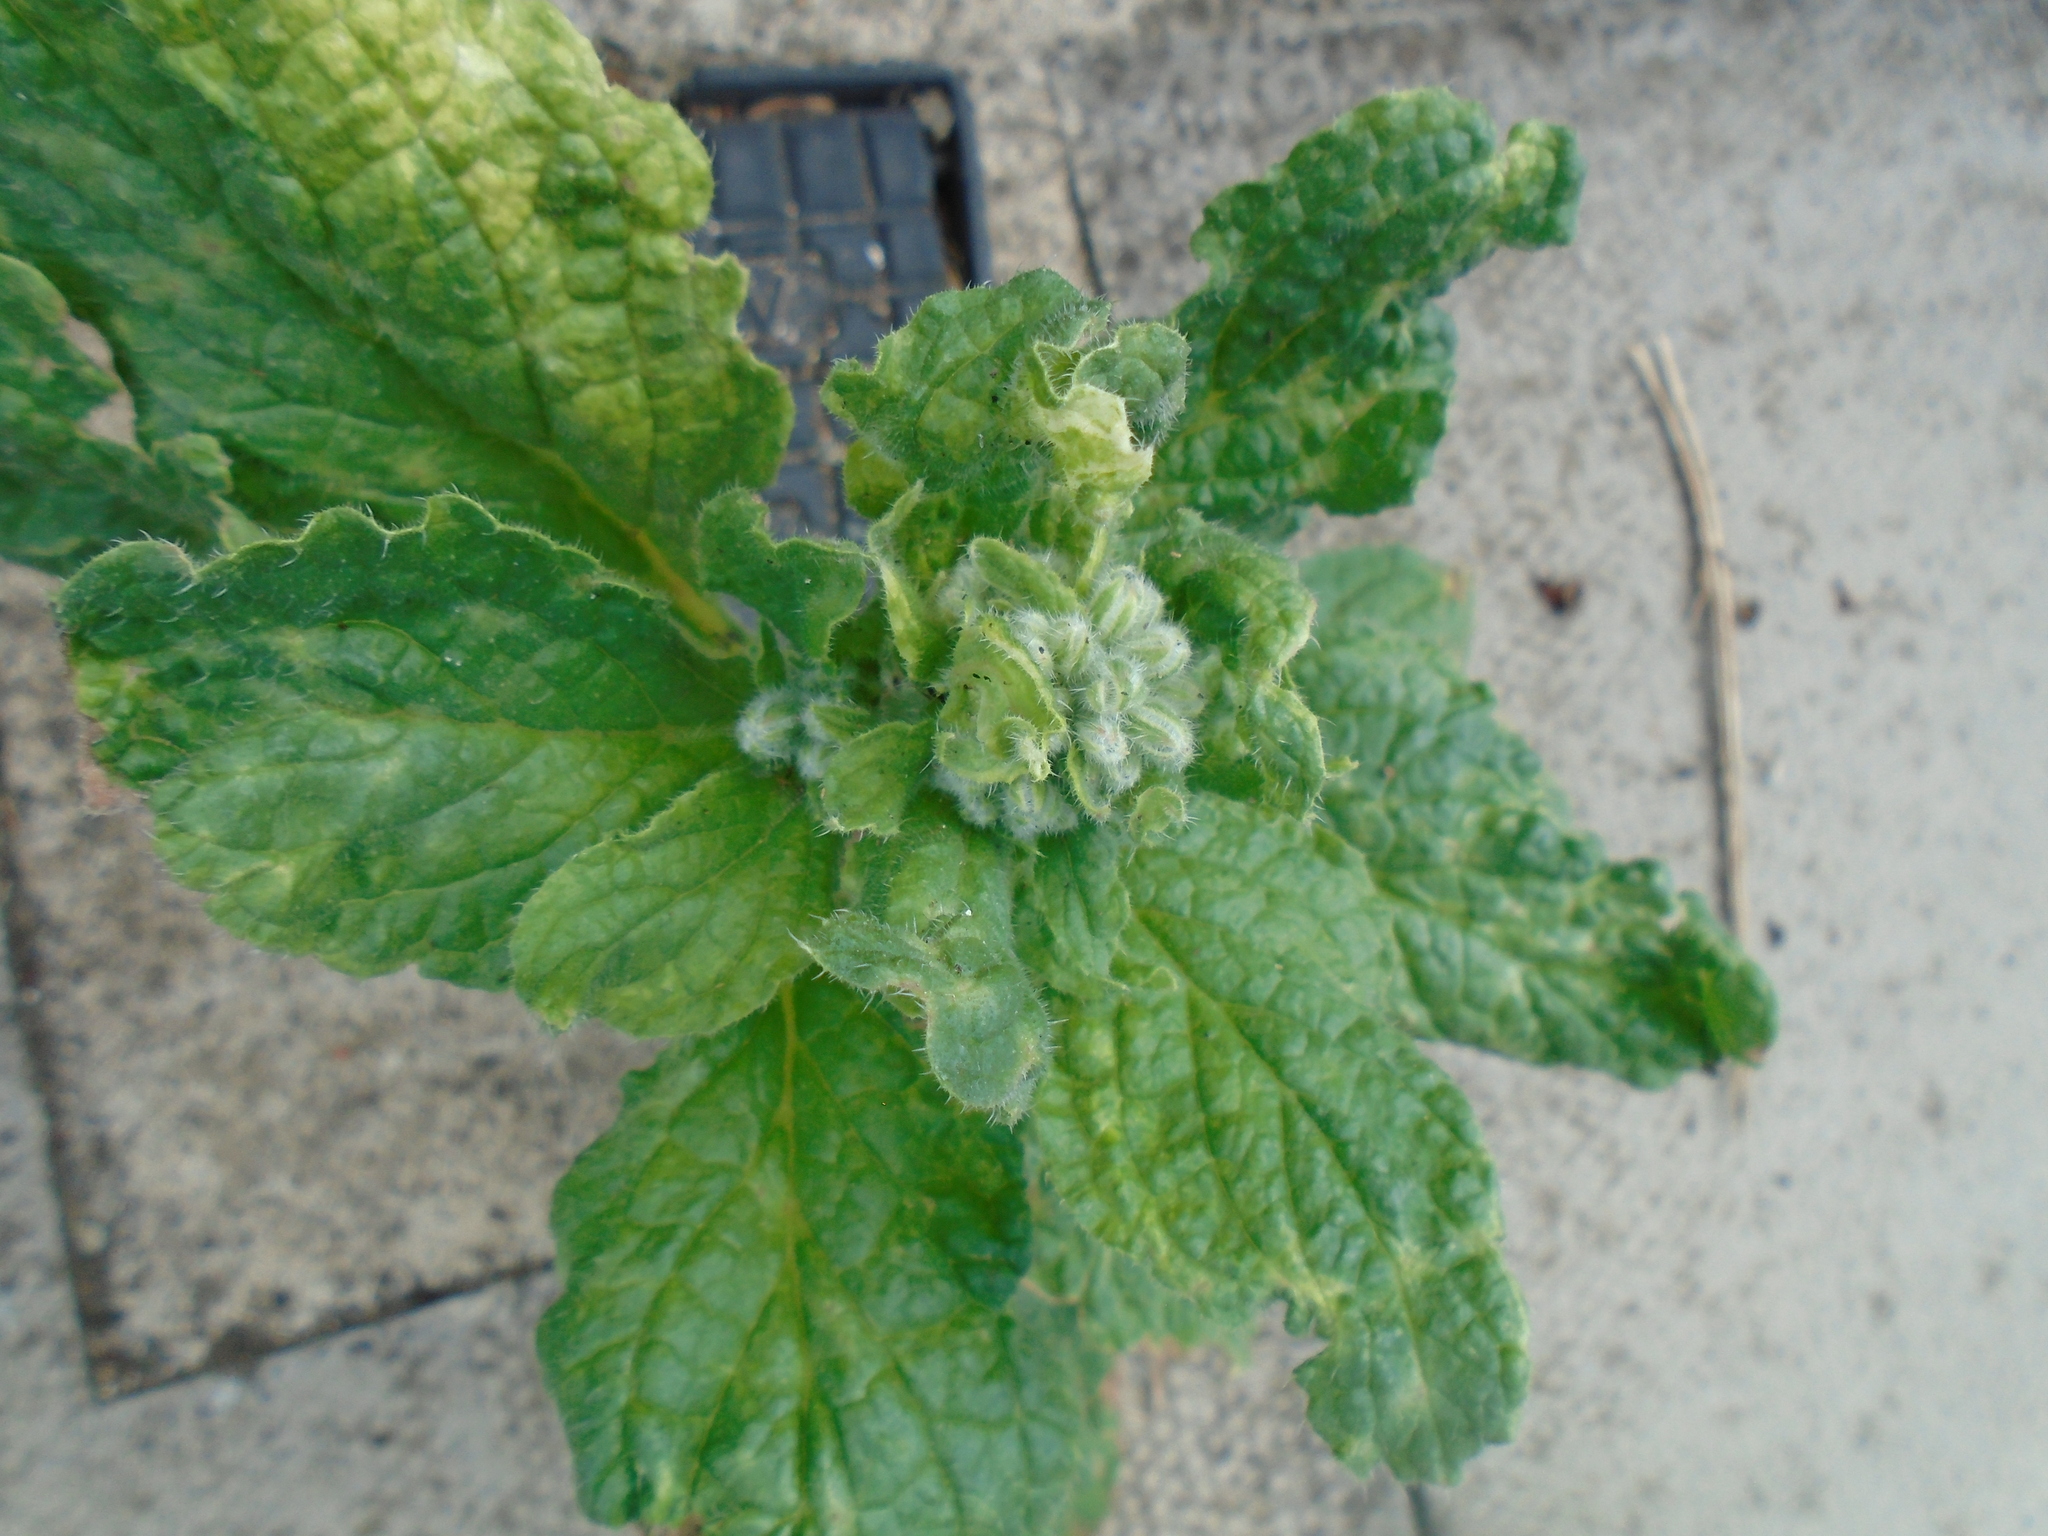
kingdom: Plantae
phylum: Tracheophyta
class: Magnoliopsida
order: Boraginales
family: Boraginaceae
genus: Borago
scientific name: Borago officinalis
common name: Borage
